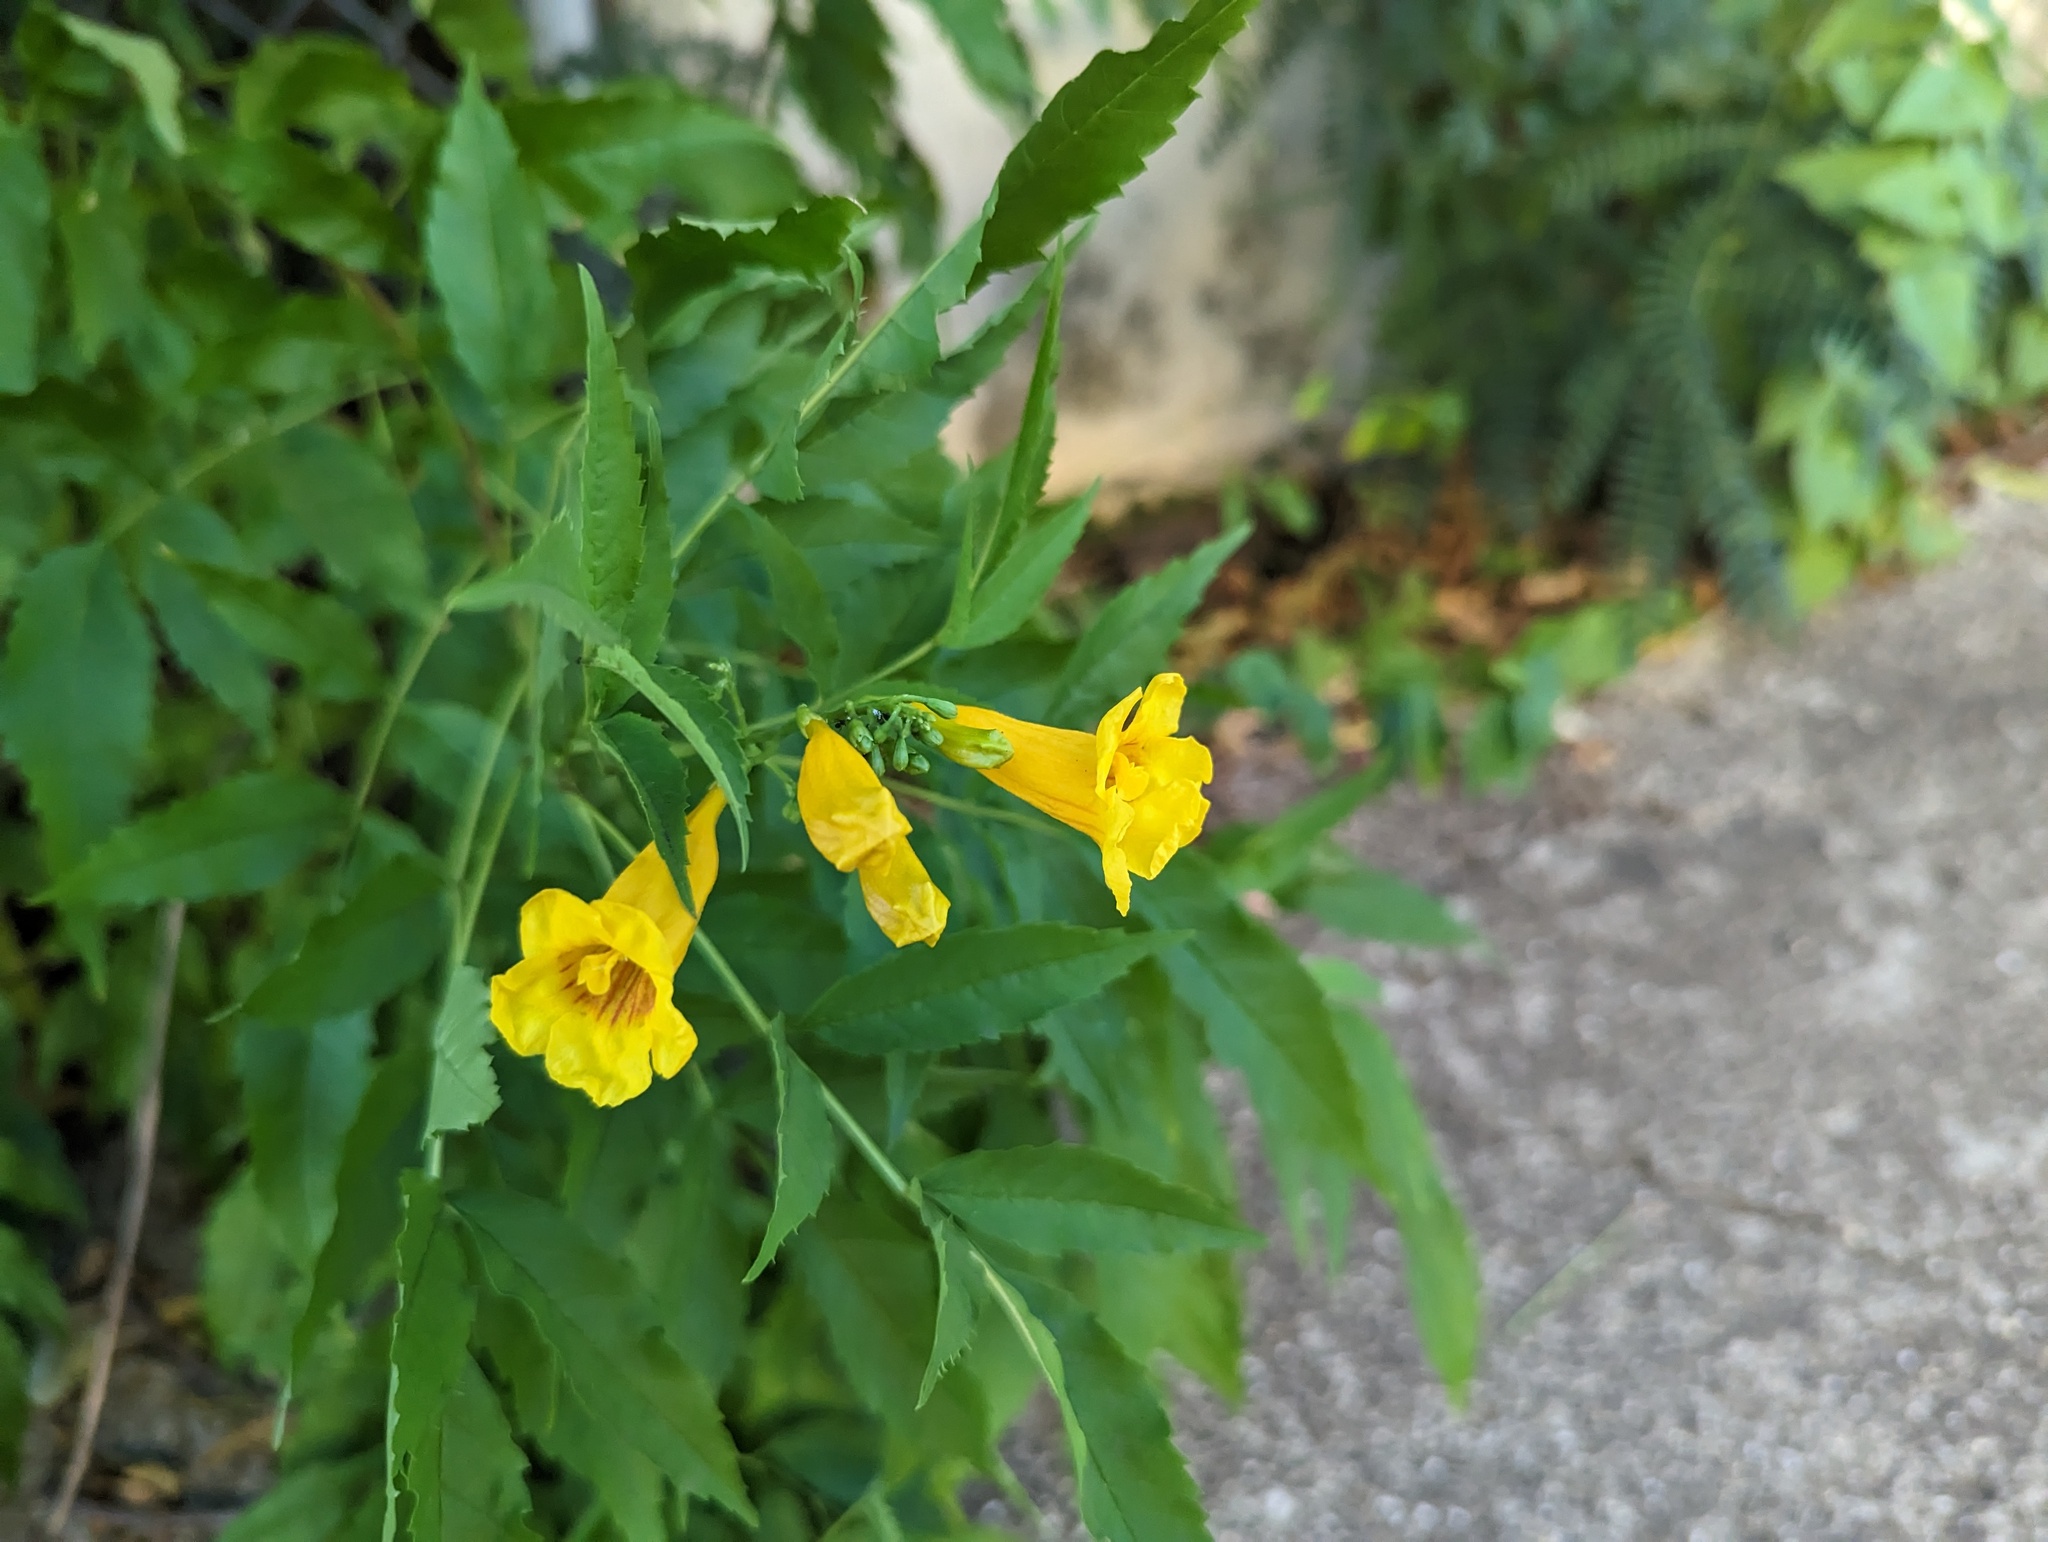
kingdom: Plantae
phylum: Tracheophyta
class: Magnoliopsida
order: Lamiales
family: Bignoniaceae
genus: Tecoma
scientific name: Tecoma stans
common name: Yellow trumpetbush
